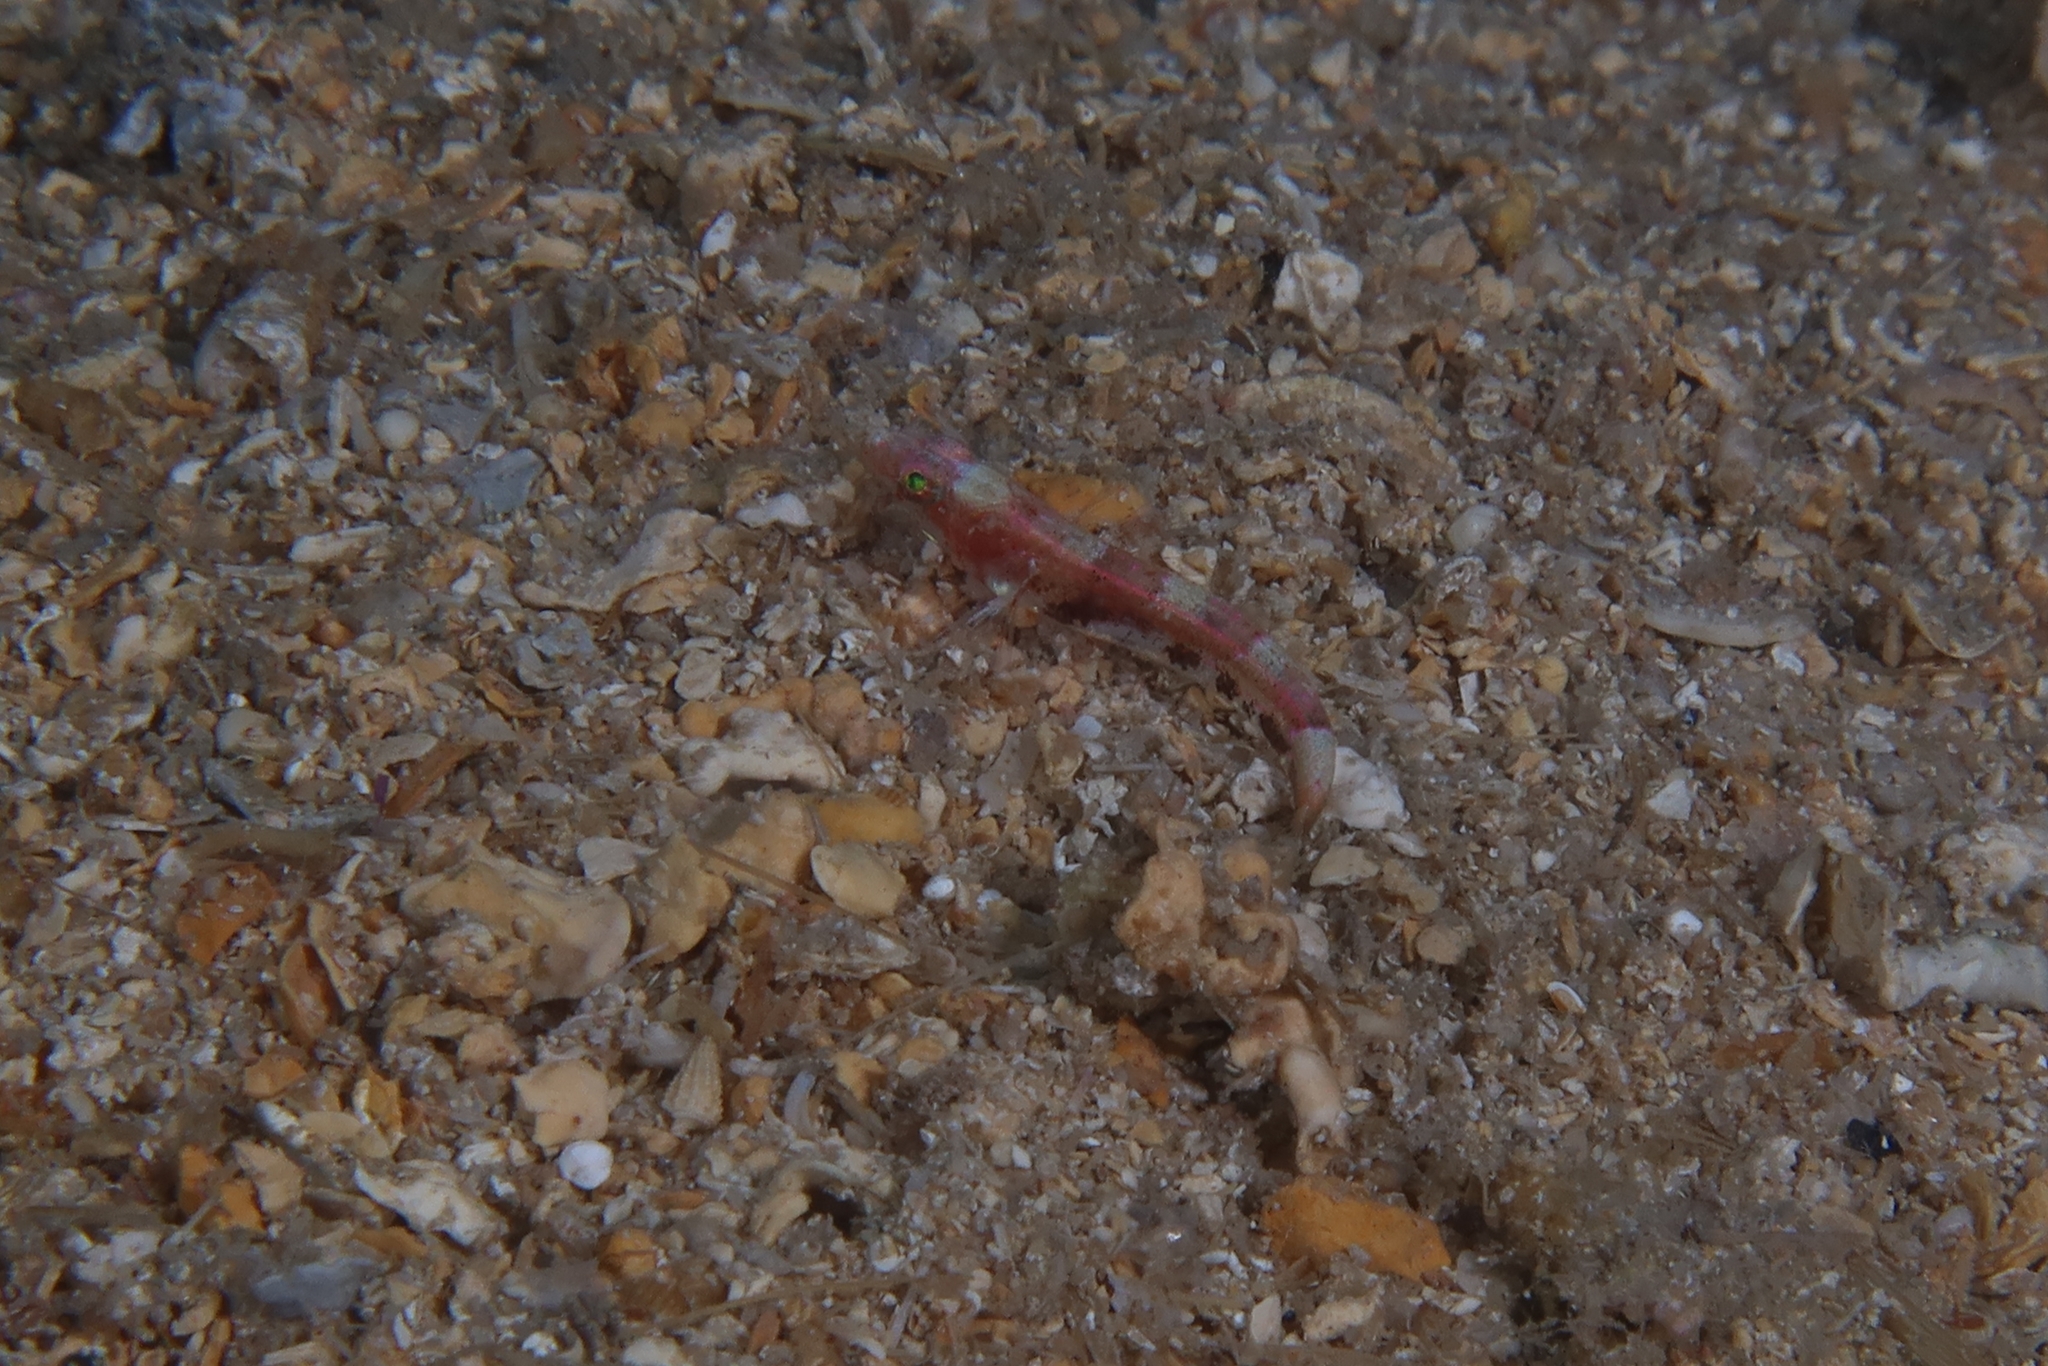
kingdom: Animalia
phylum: Chordata
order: Perciformes
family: Gobiidae
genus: Speleogobius
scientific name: Speleogobius llorisi
